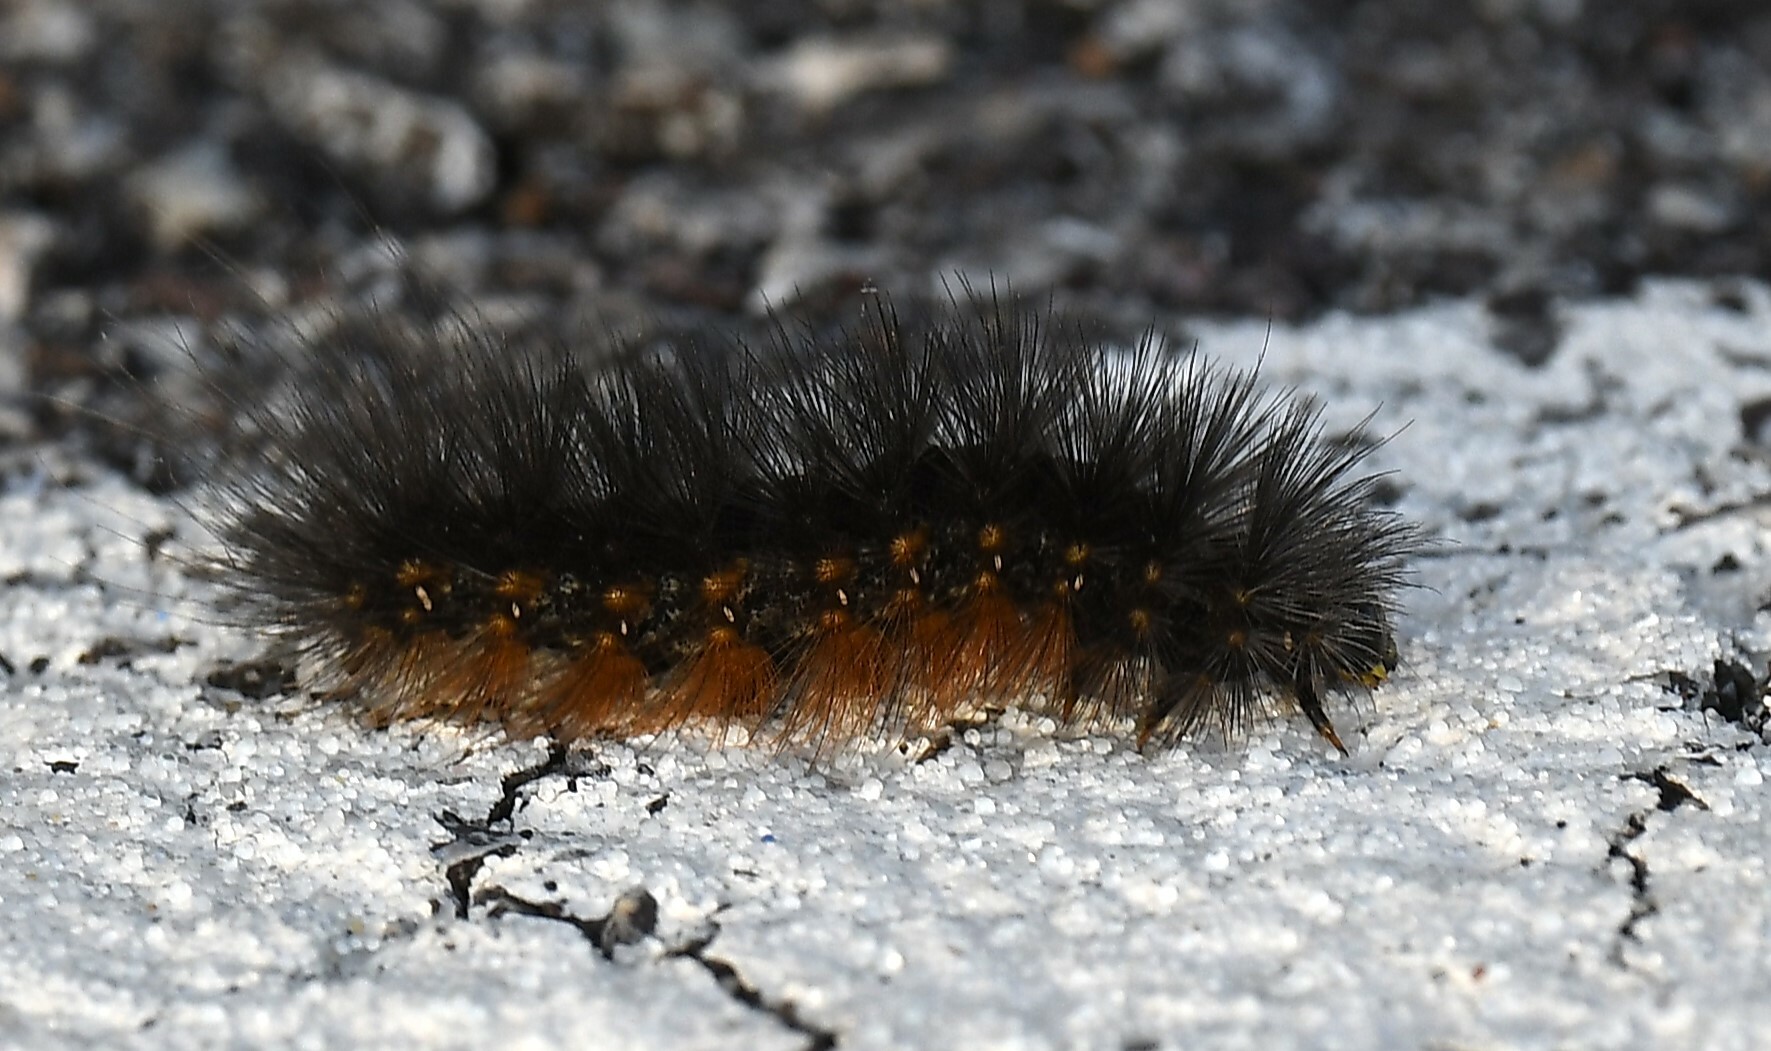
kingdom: Animalia
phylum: Arthropoda
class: Insecta
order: Lepidoptera
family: Erebidae
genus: Estigmene
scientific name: Estigmene acrea
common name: Salt marsh moth
